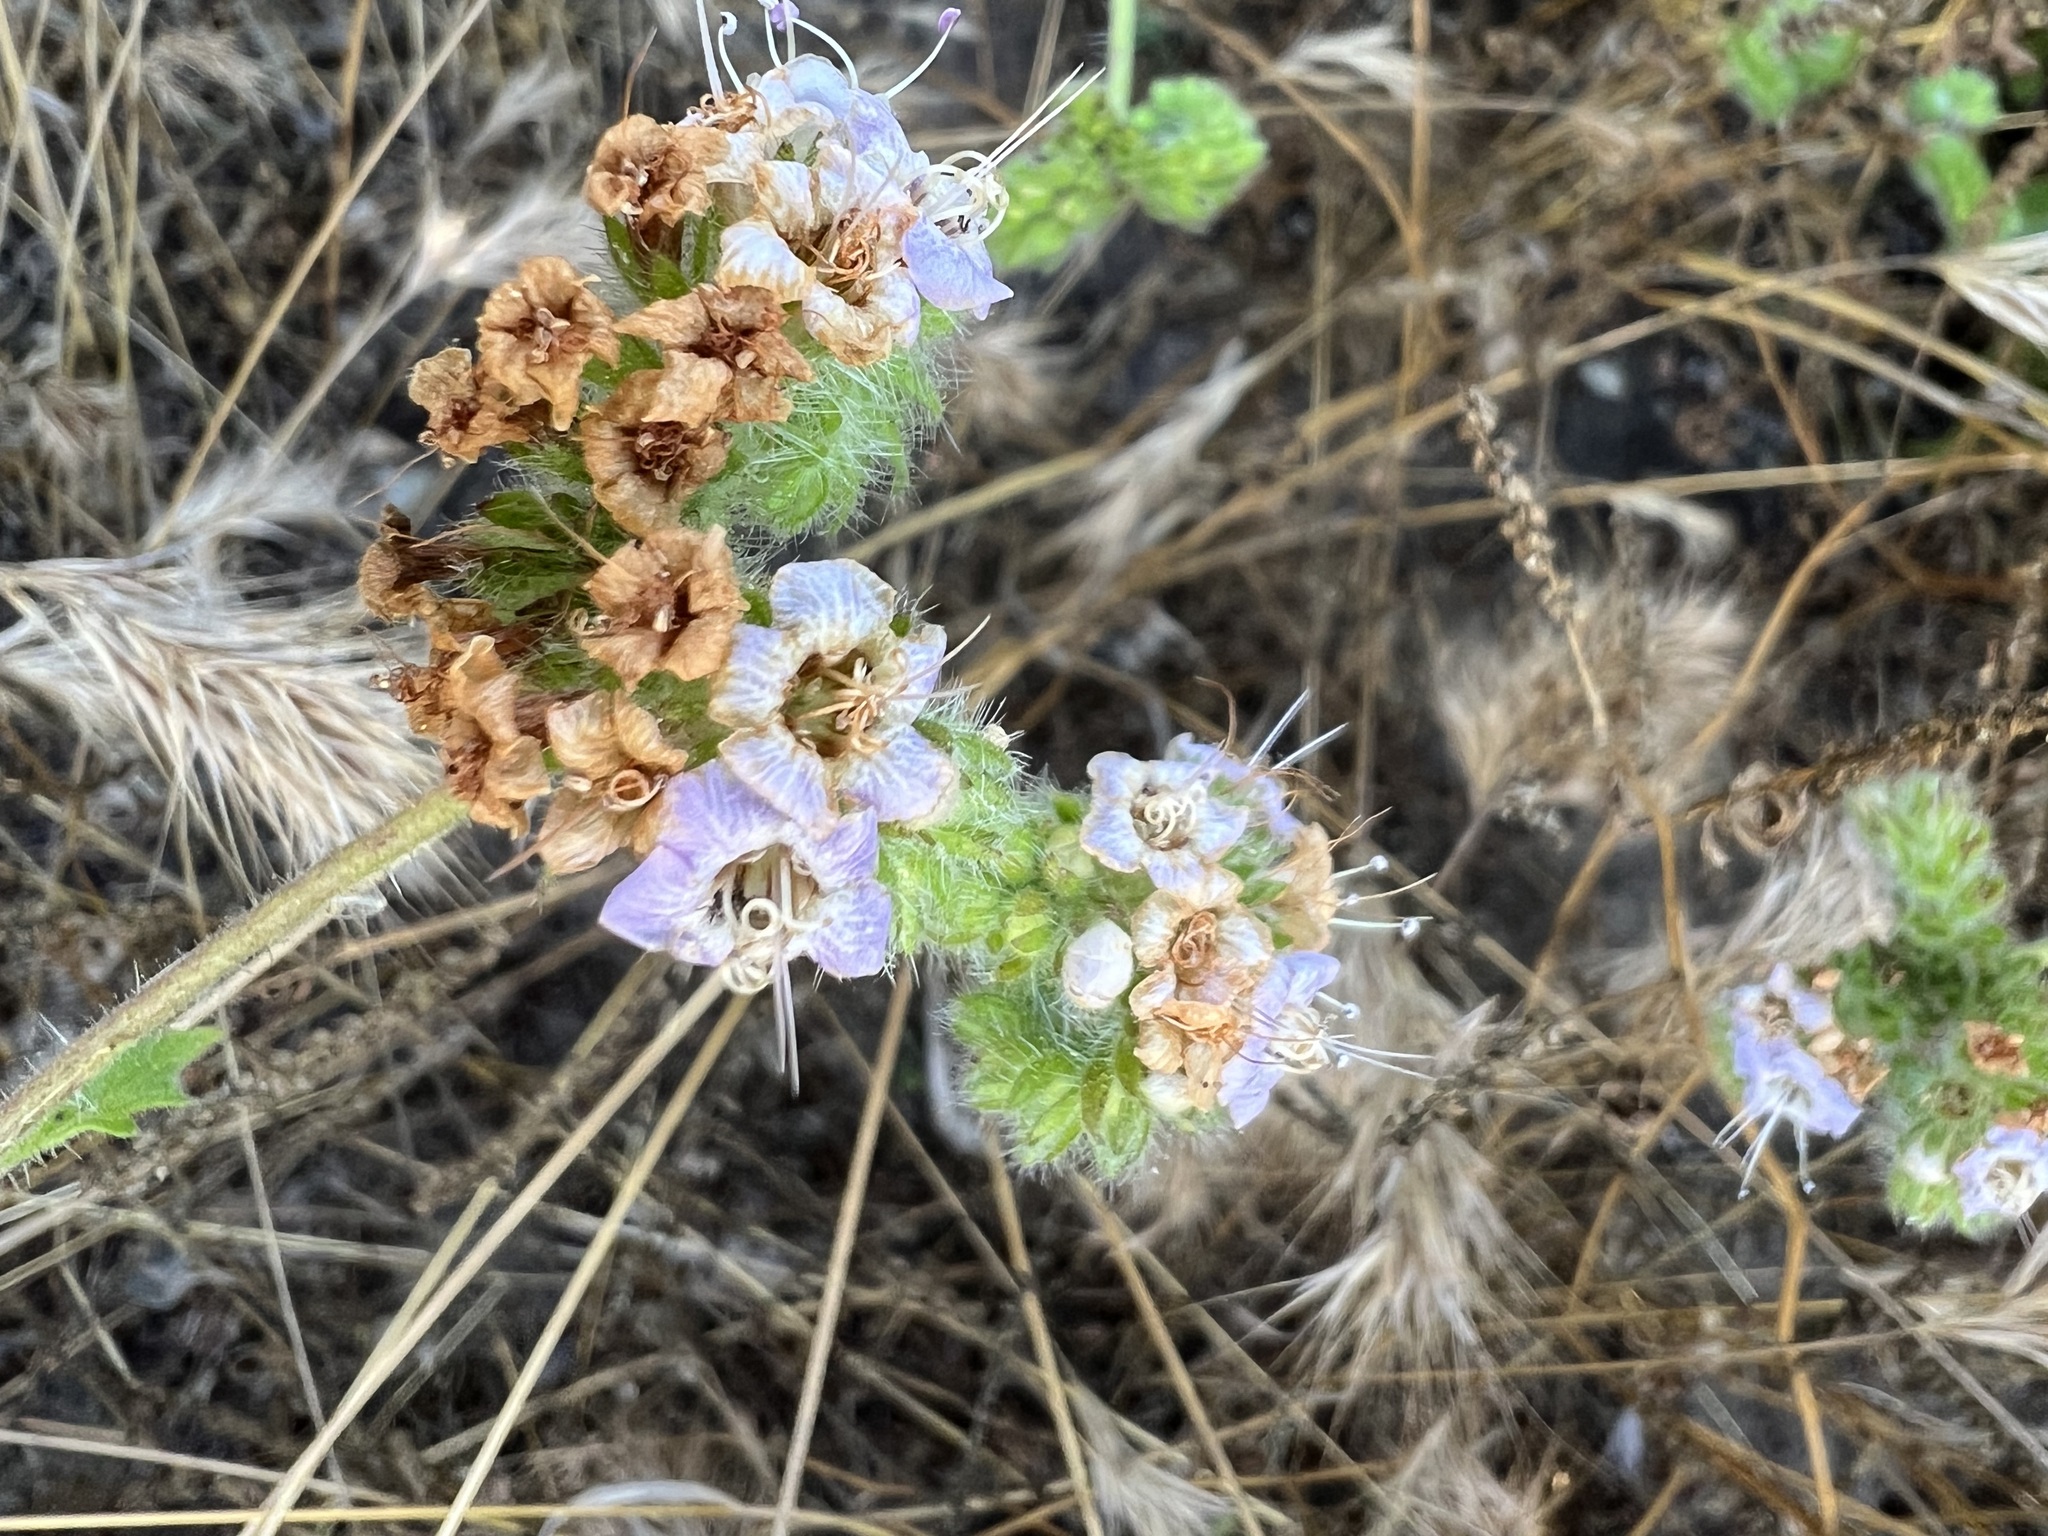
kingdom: Plantae
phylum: Tracheophyta
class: Magnoliopsida
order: Boraginales
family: Hydrophyllaceae
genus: Phacelia
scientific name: Phacelia ramosissima
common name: Branching phacelia
